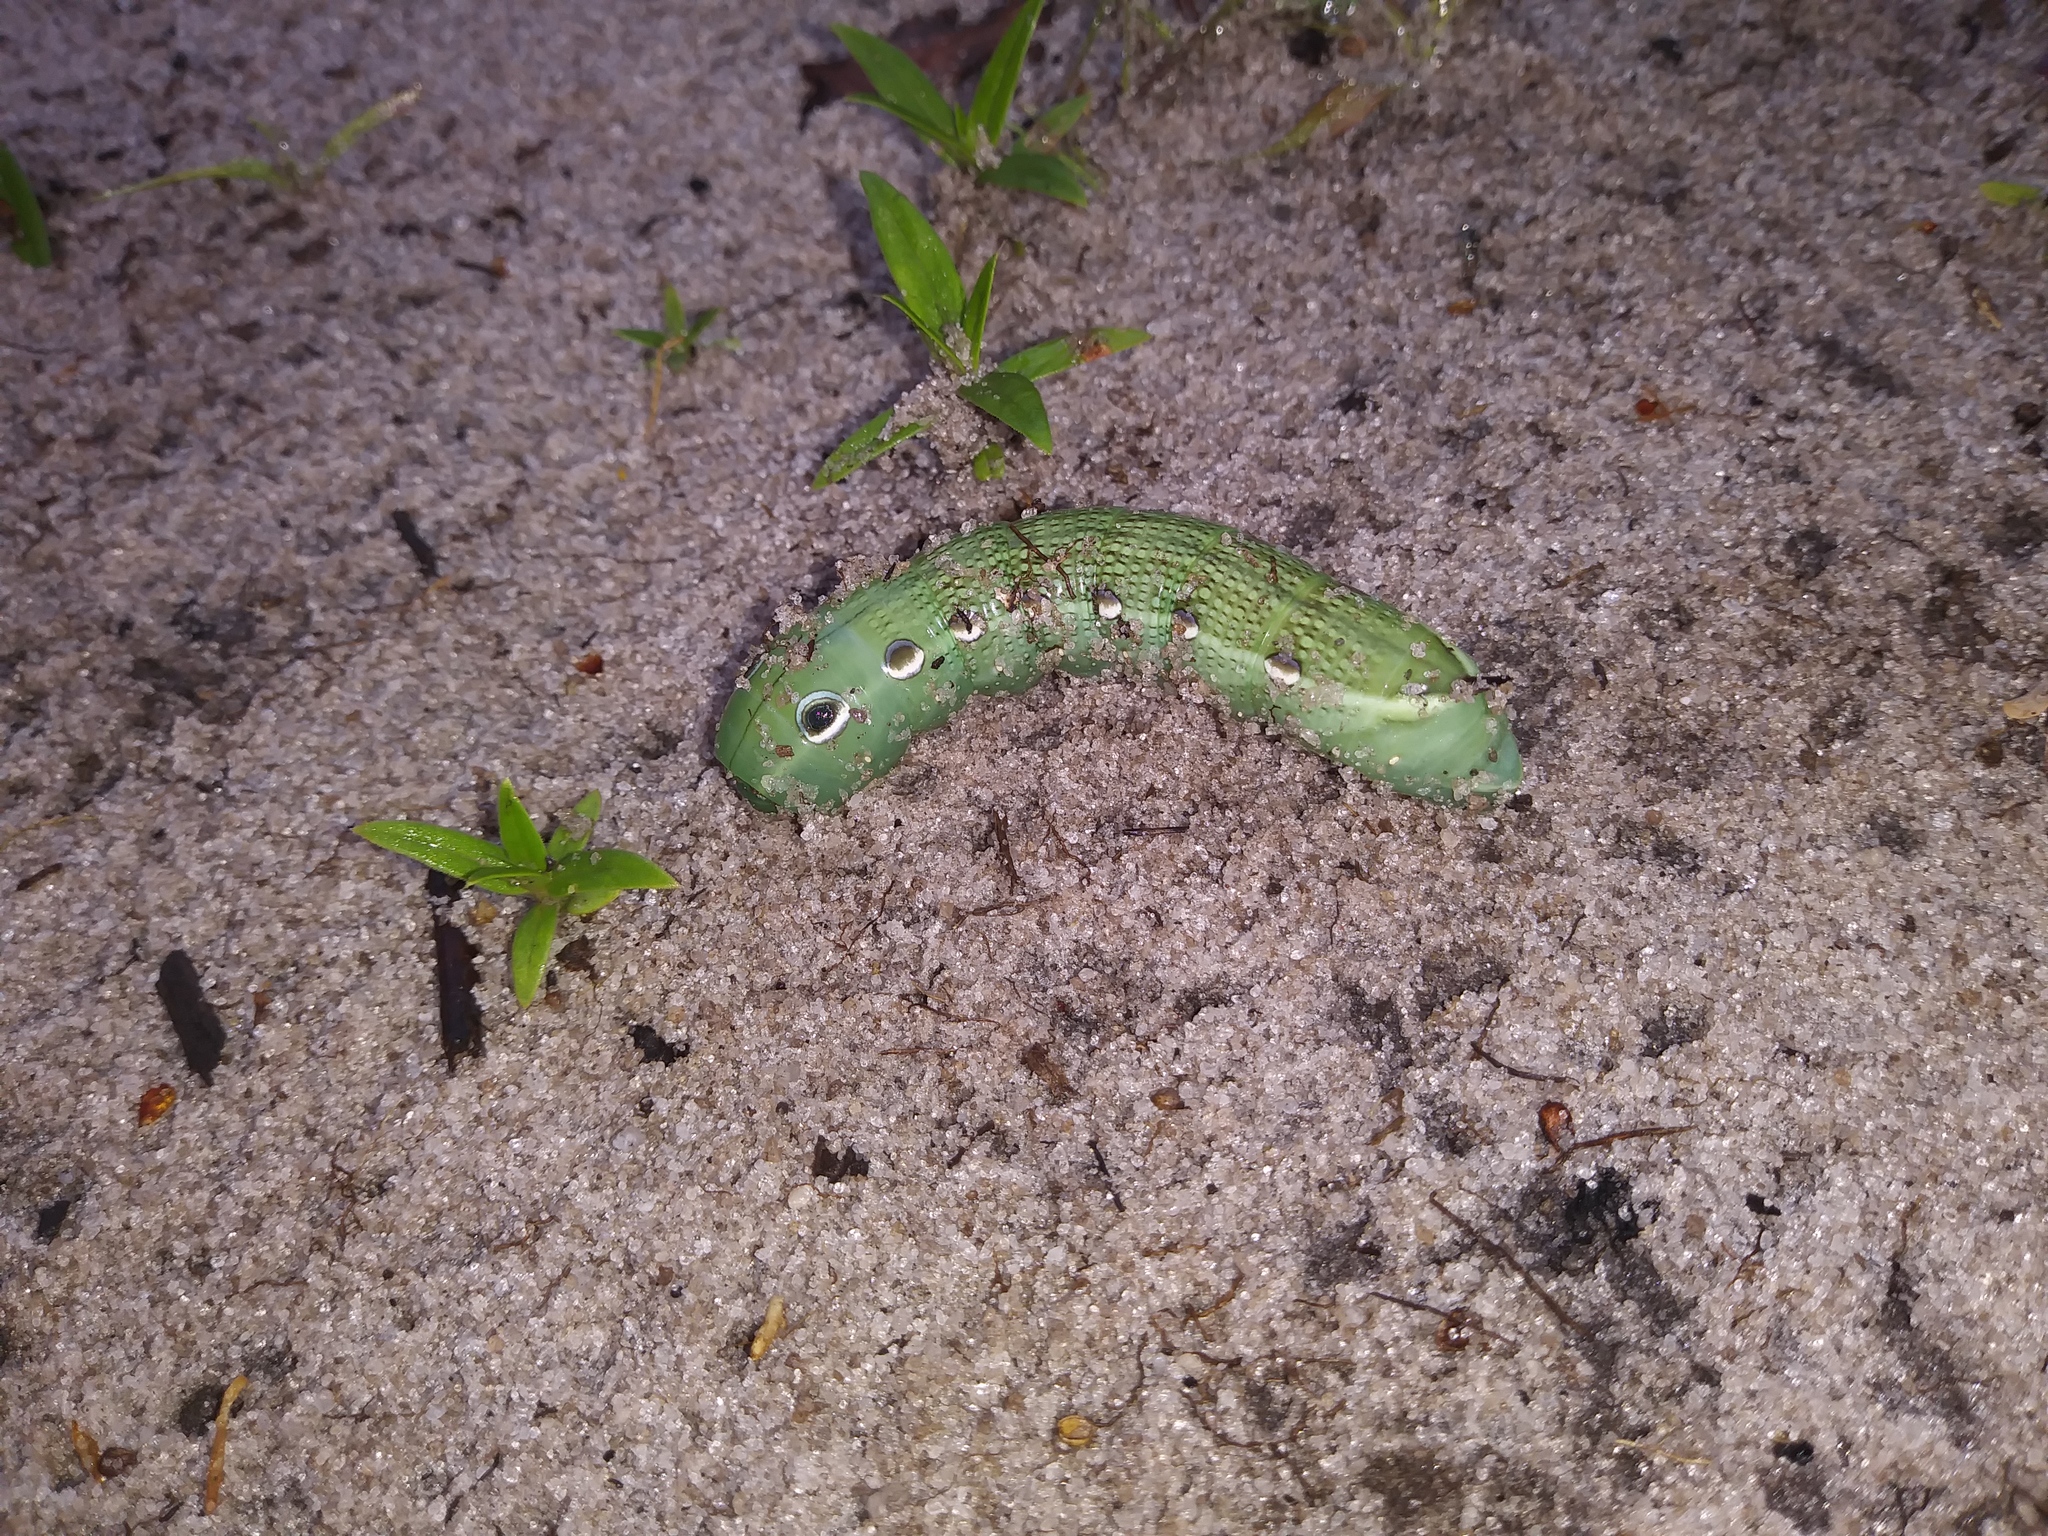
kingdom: Animalia
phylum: Arthropoda
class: Insecta
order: Lepidoptera
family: Sphingidae
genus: Xylophanes
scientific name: Xylophanes tersa
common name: Tersa sphinx
